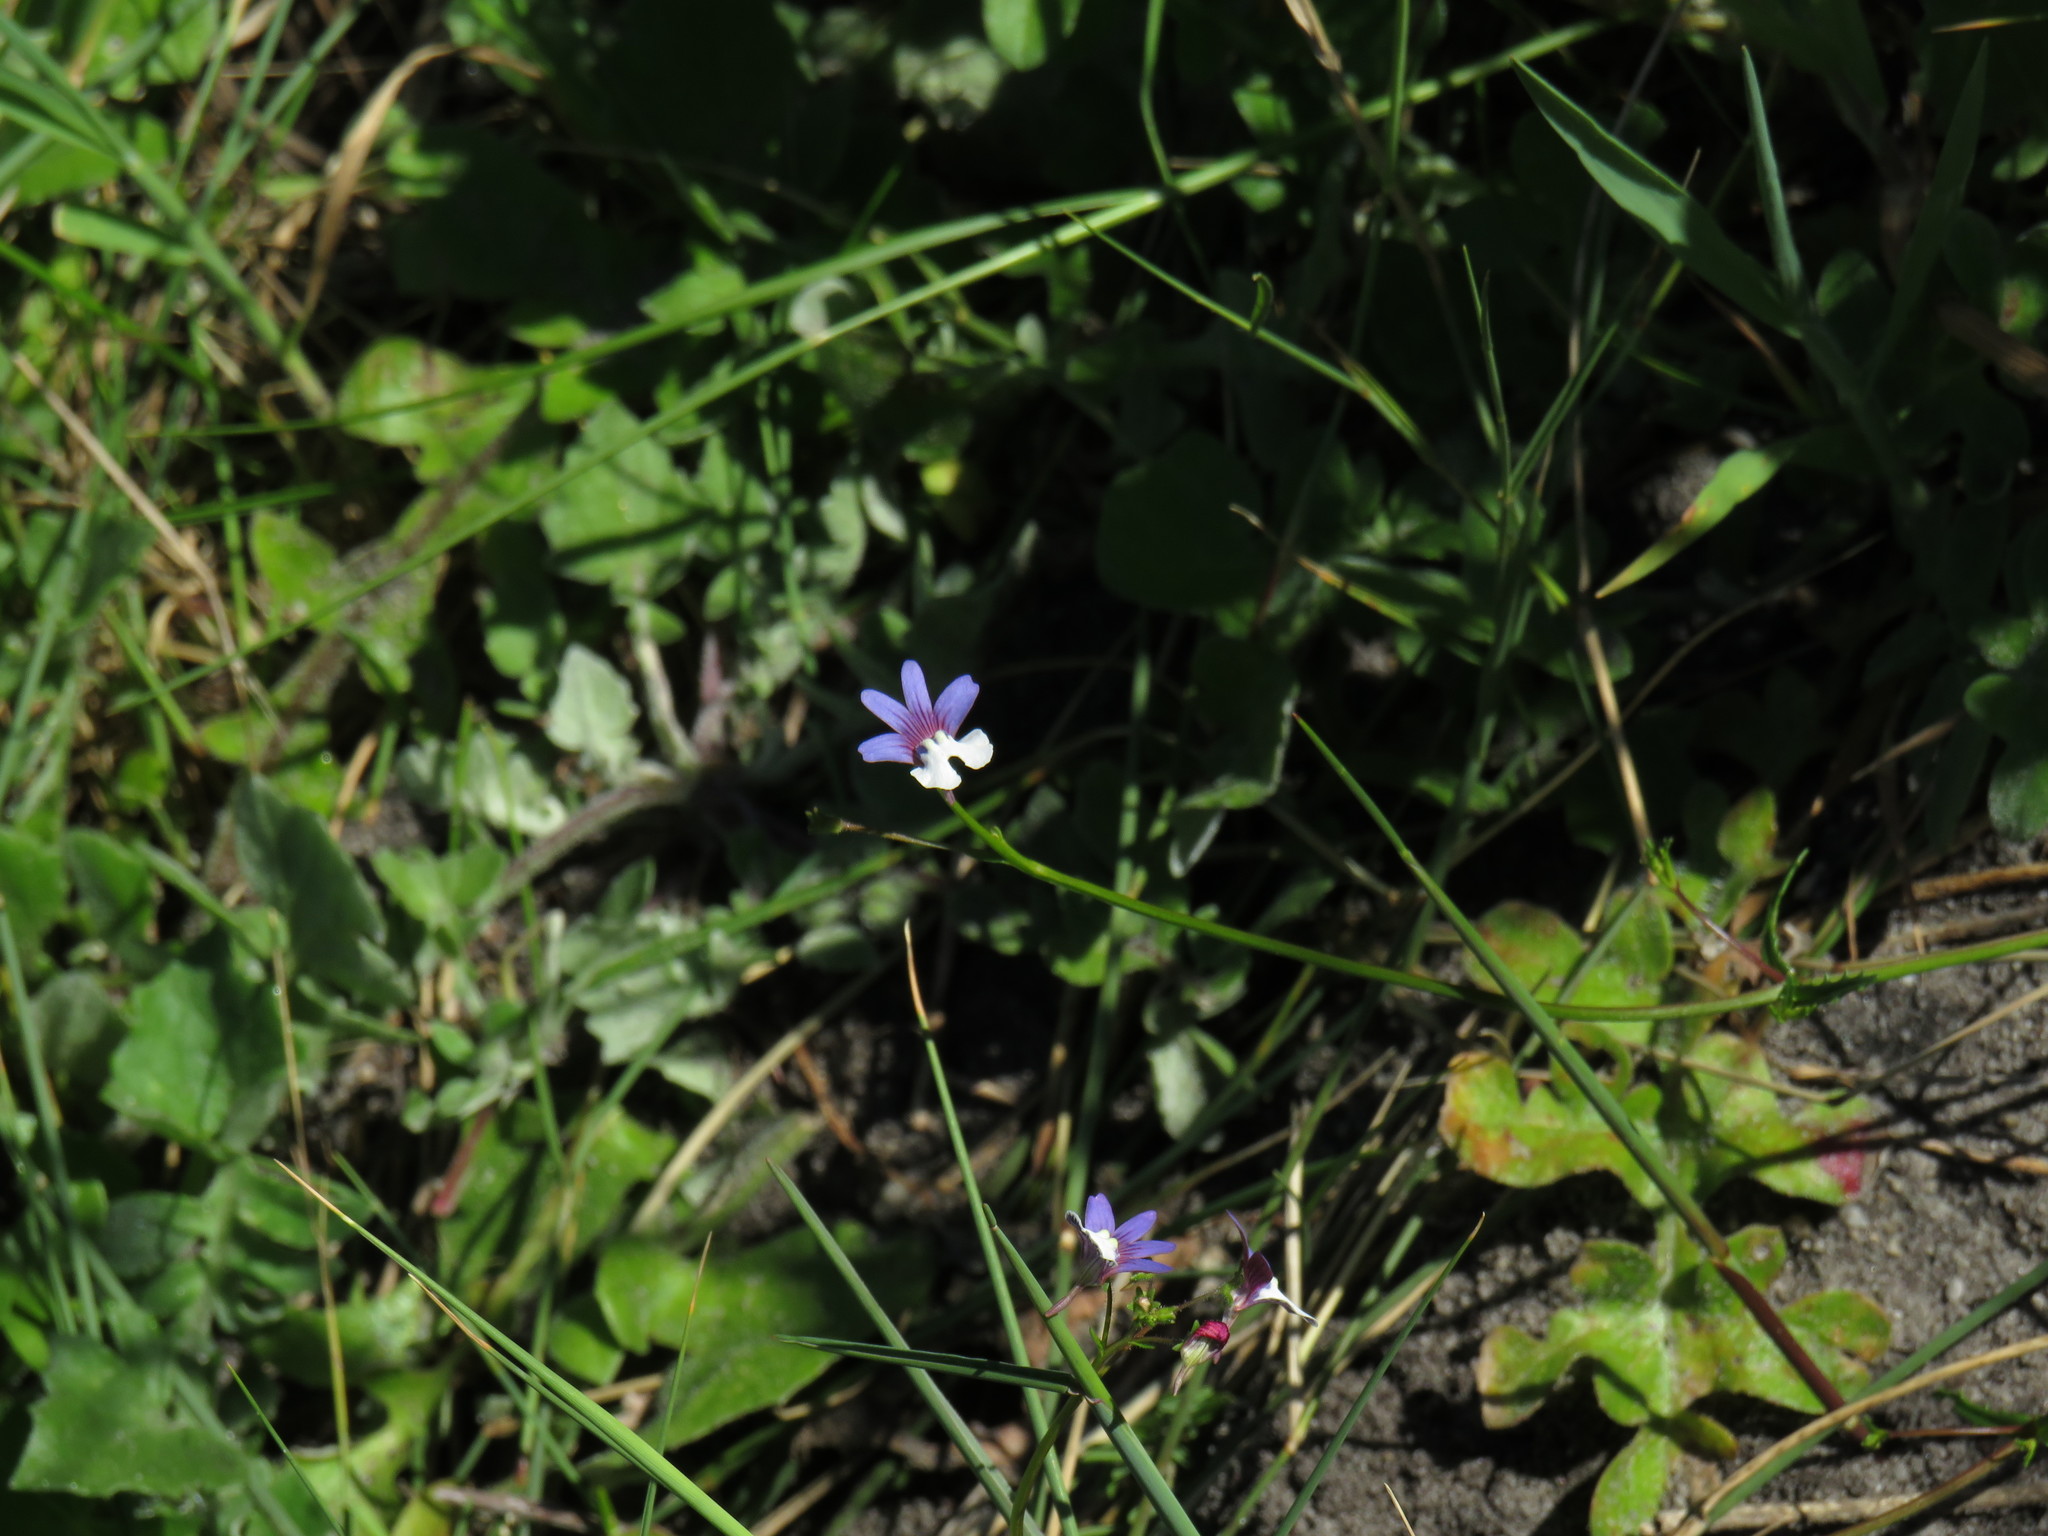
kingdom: Plantae
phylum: Tracheophyta
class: Magnoliopsida
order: Lamiales
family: Scrophulariaceae
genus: Nemesia
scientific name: Nemesia affinis
